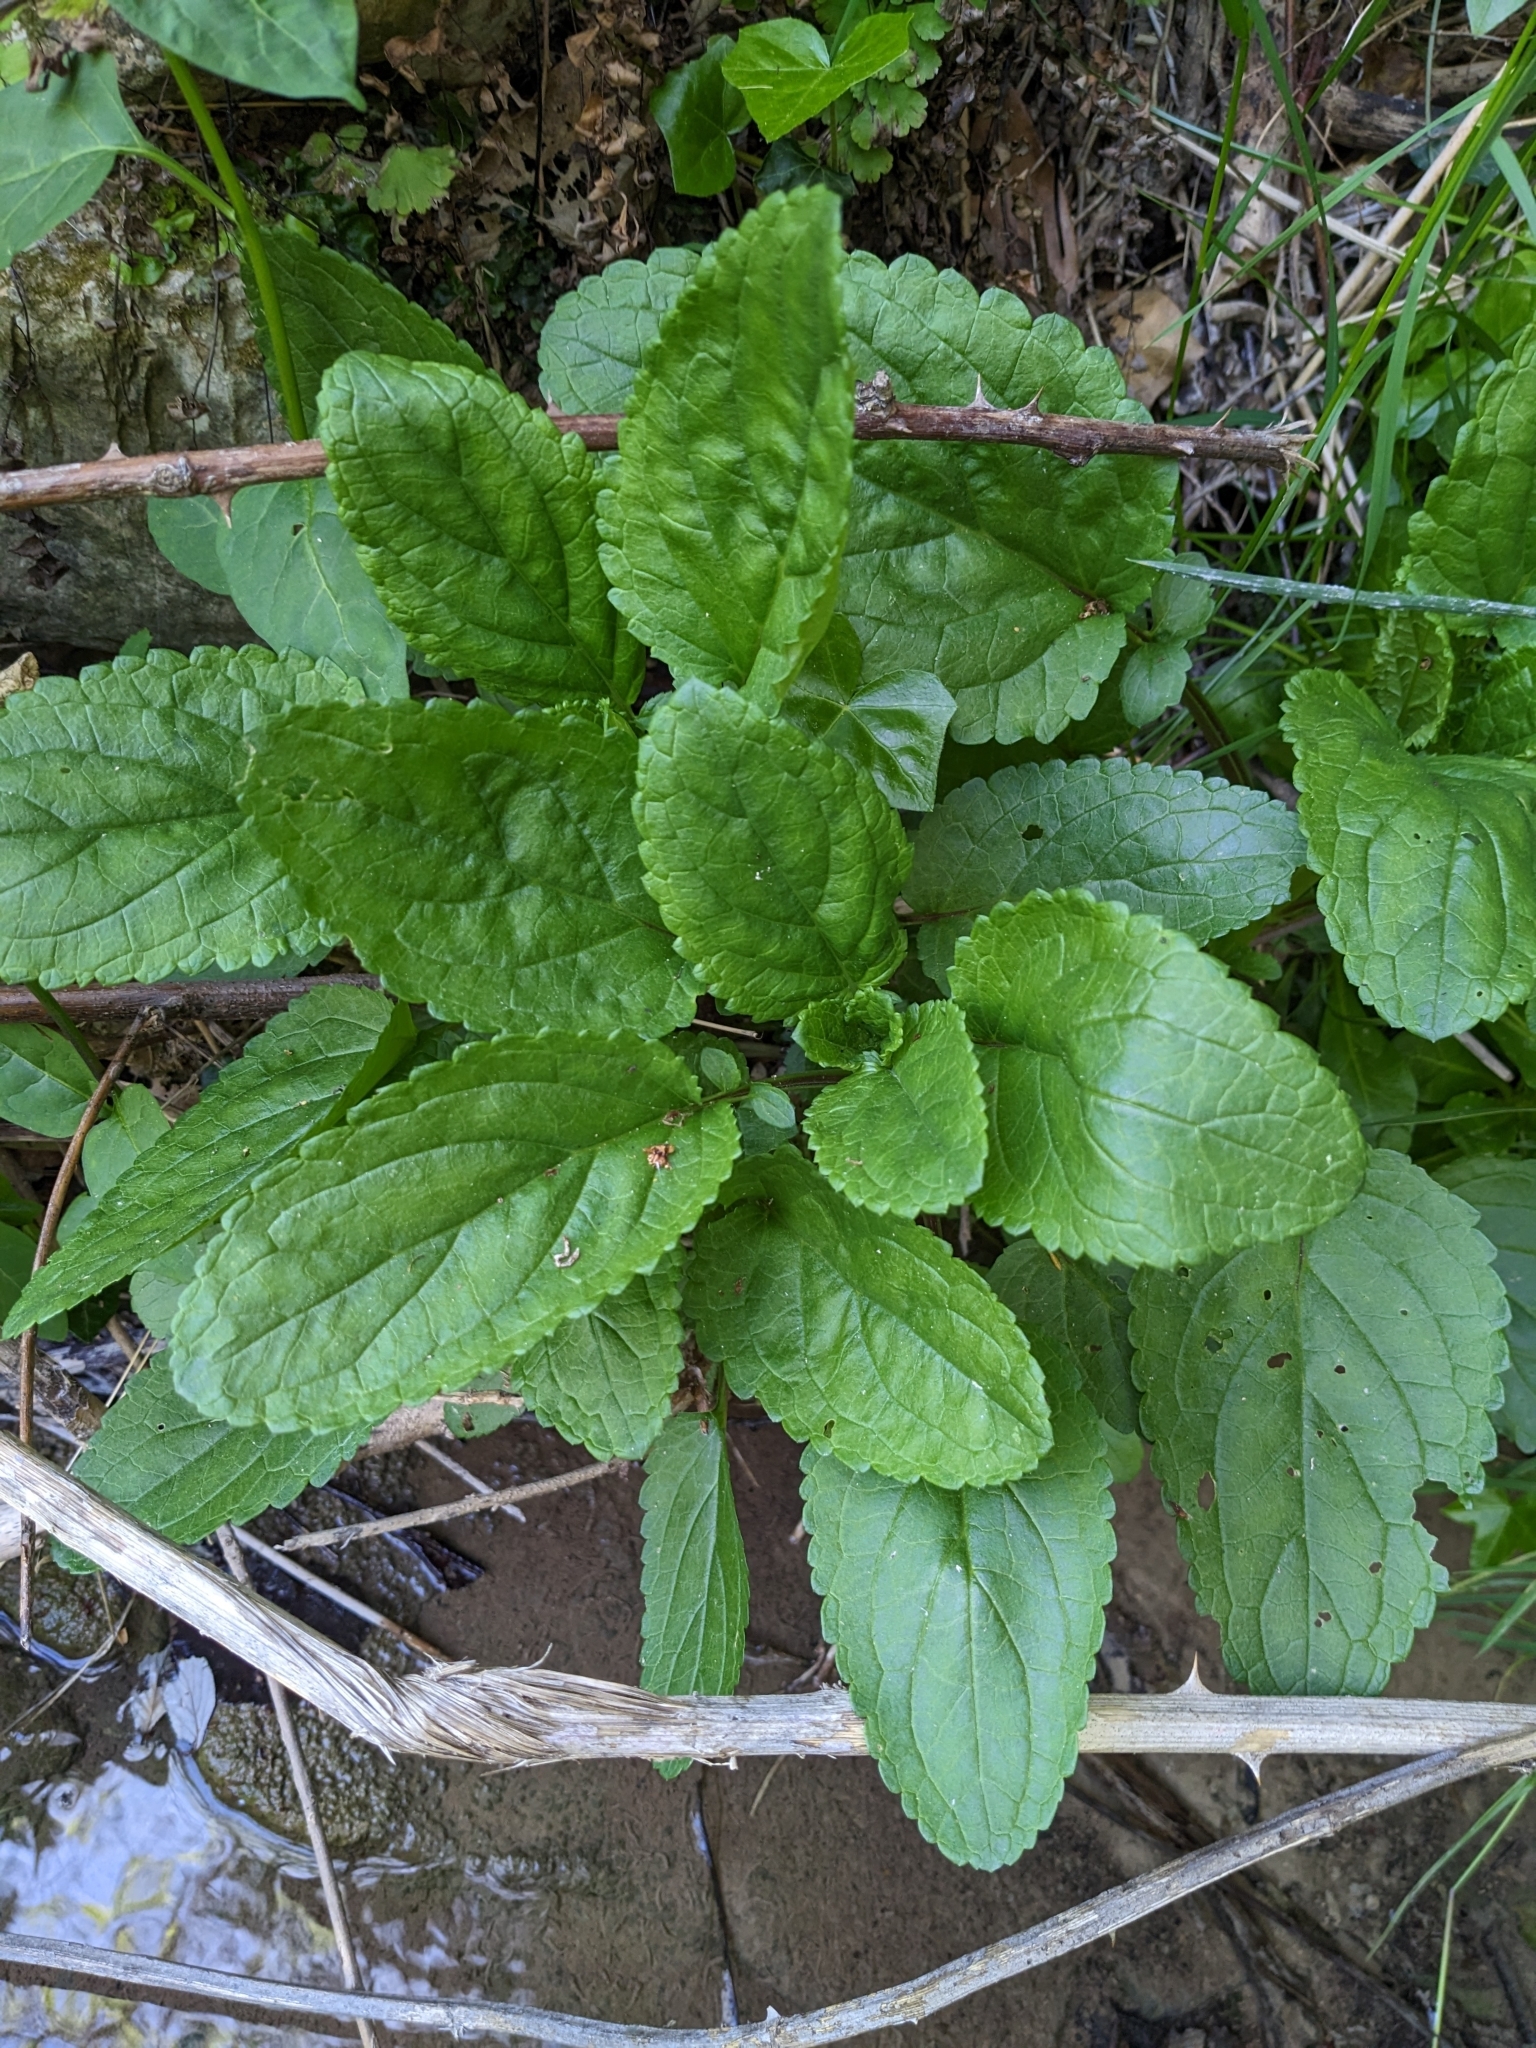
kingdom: Plantae
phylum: Tracheophyta
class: Magnoliopsida
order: Lamiales
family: Scrophulariaceae
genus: Scrophularia
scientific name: Scrophularia auriculata
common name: Water betony
